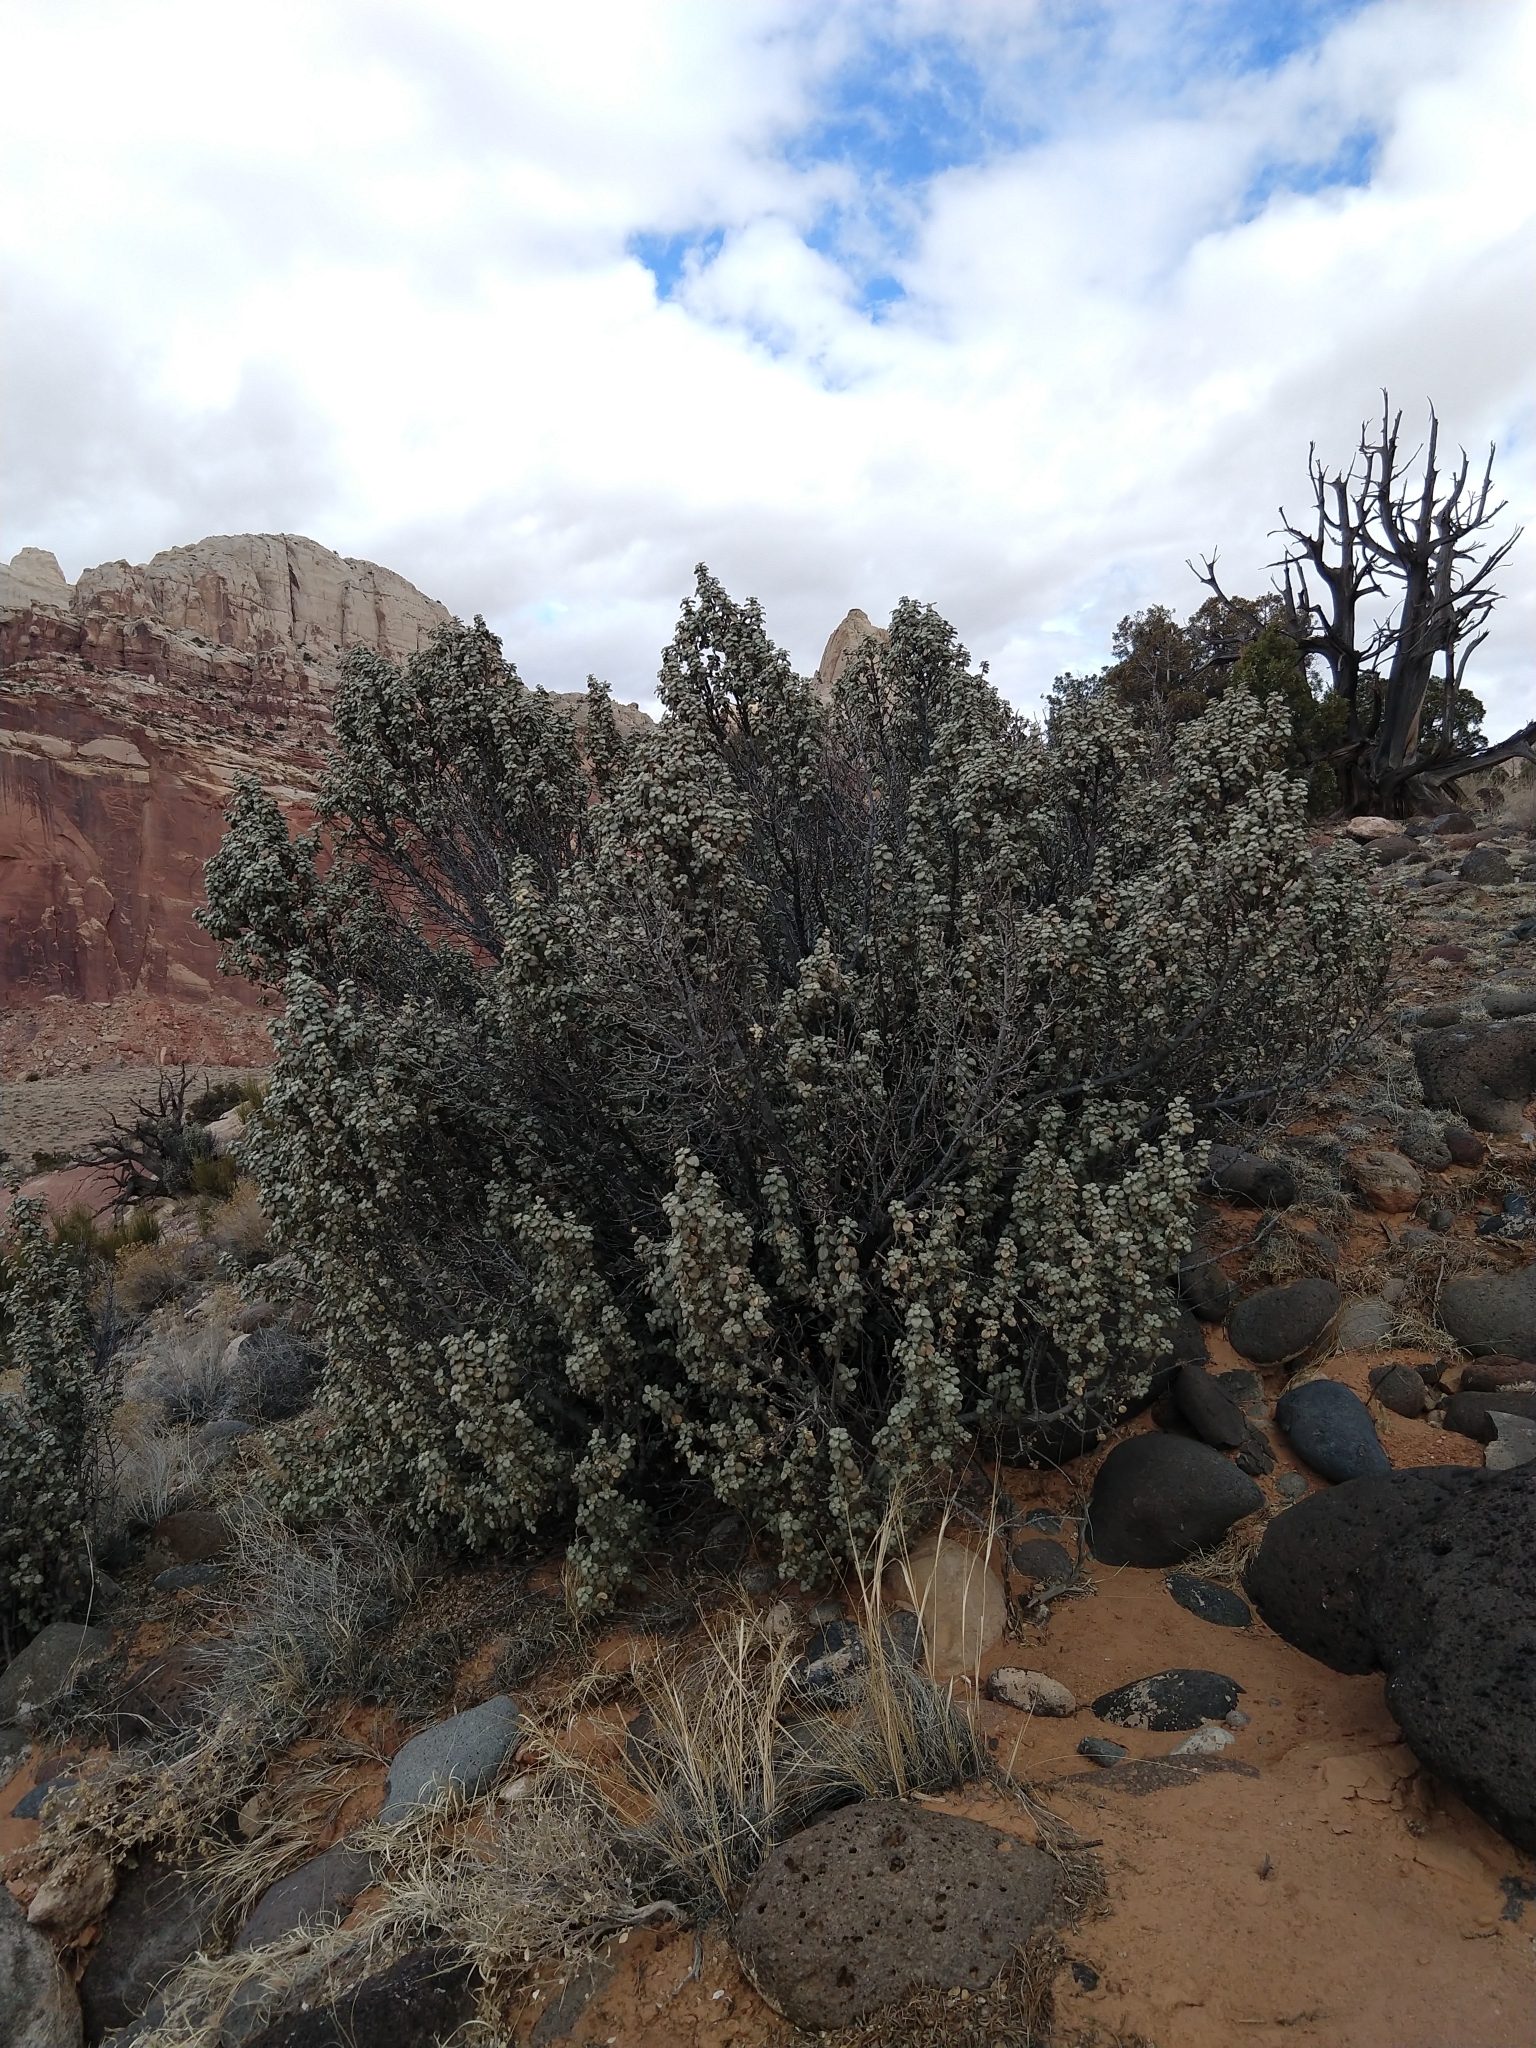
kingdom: Plantae
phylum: Tracheophyta
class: Magnoliopsida
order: Rosales
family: Elaeagnaceae
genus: Shepherdia
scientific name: Shepherdia rotundifolia
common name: Silverscale
